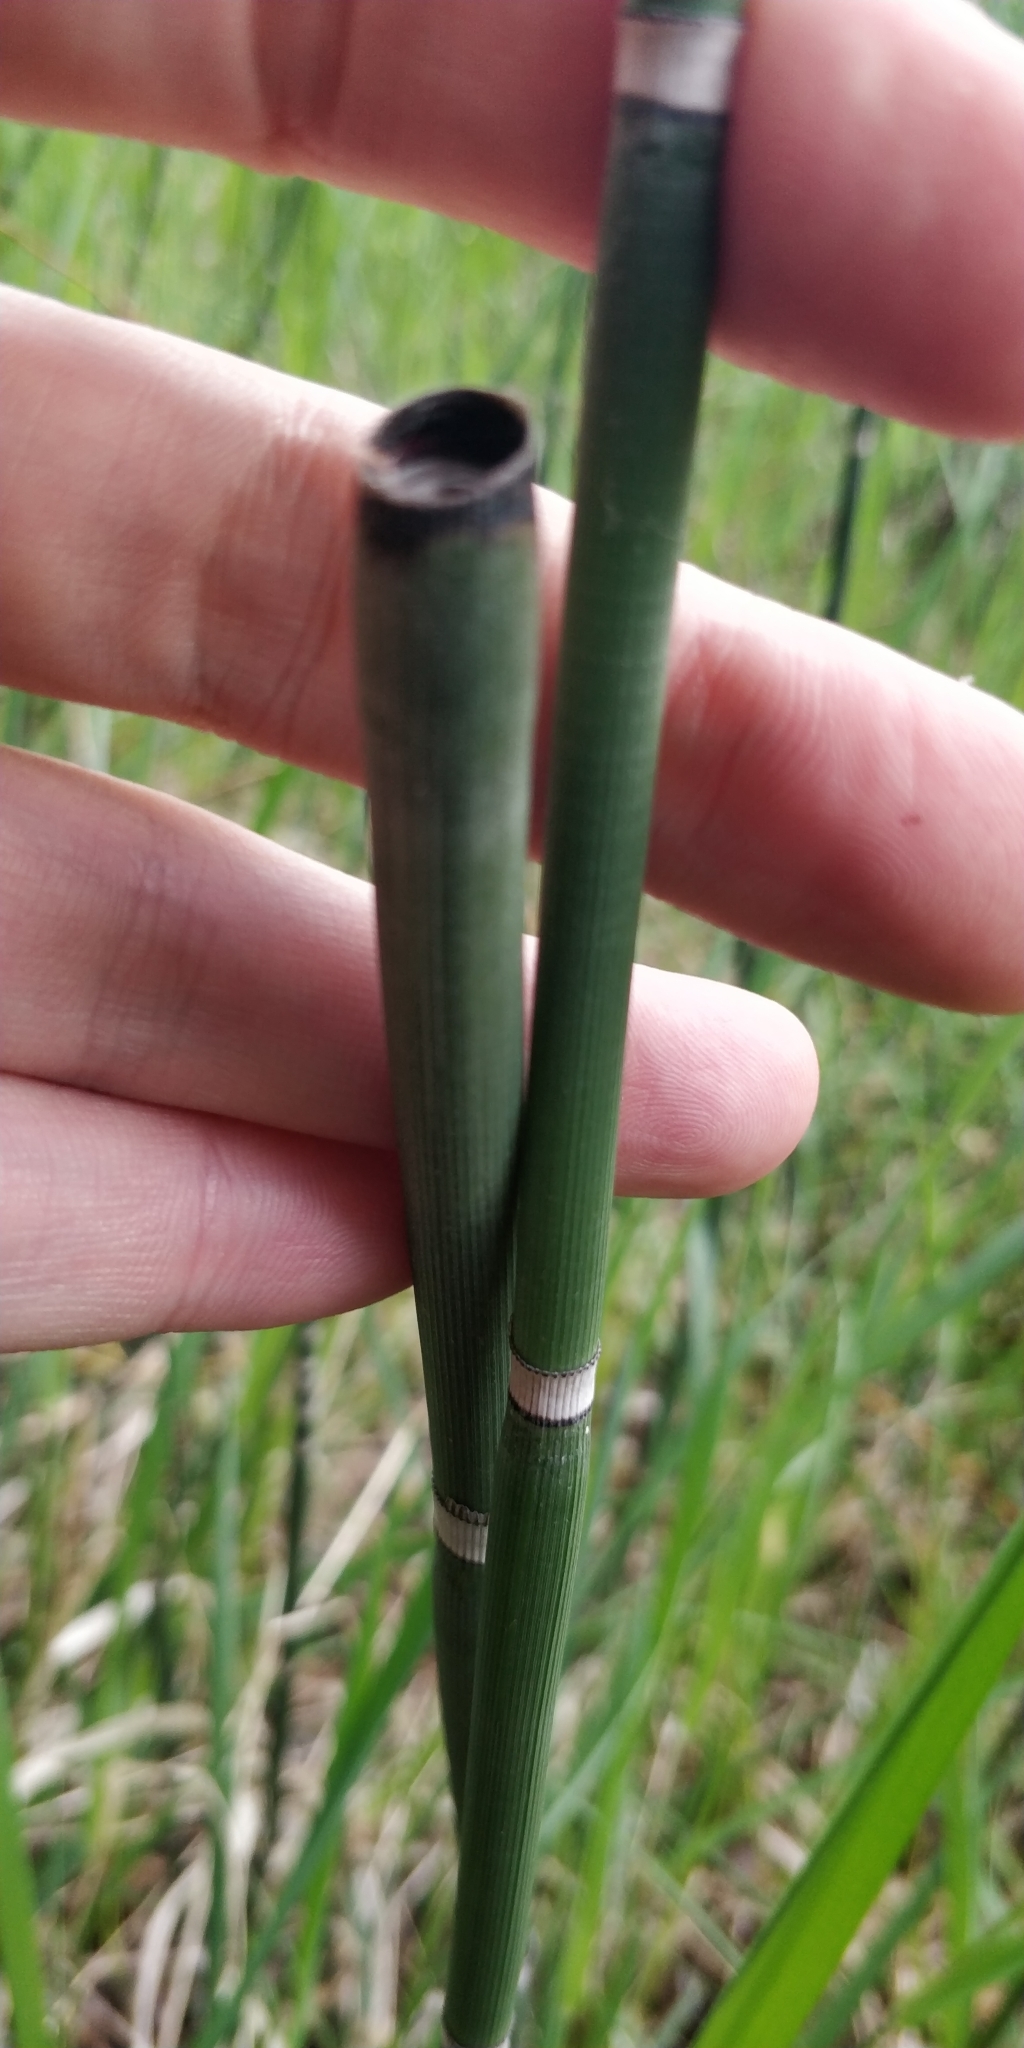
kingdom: Plantae
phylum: Tracheophyta
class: Polypodiopsida
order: Equisetales
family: Equisetaceae
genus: Equisetum
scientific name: Equisetum hyemale
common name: Rough horsetail
